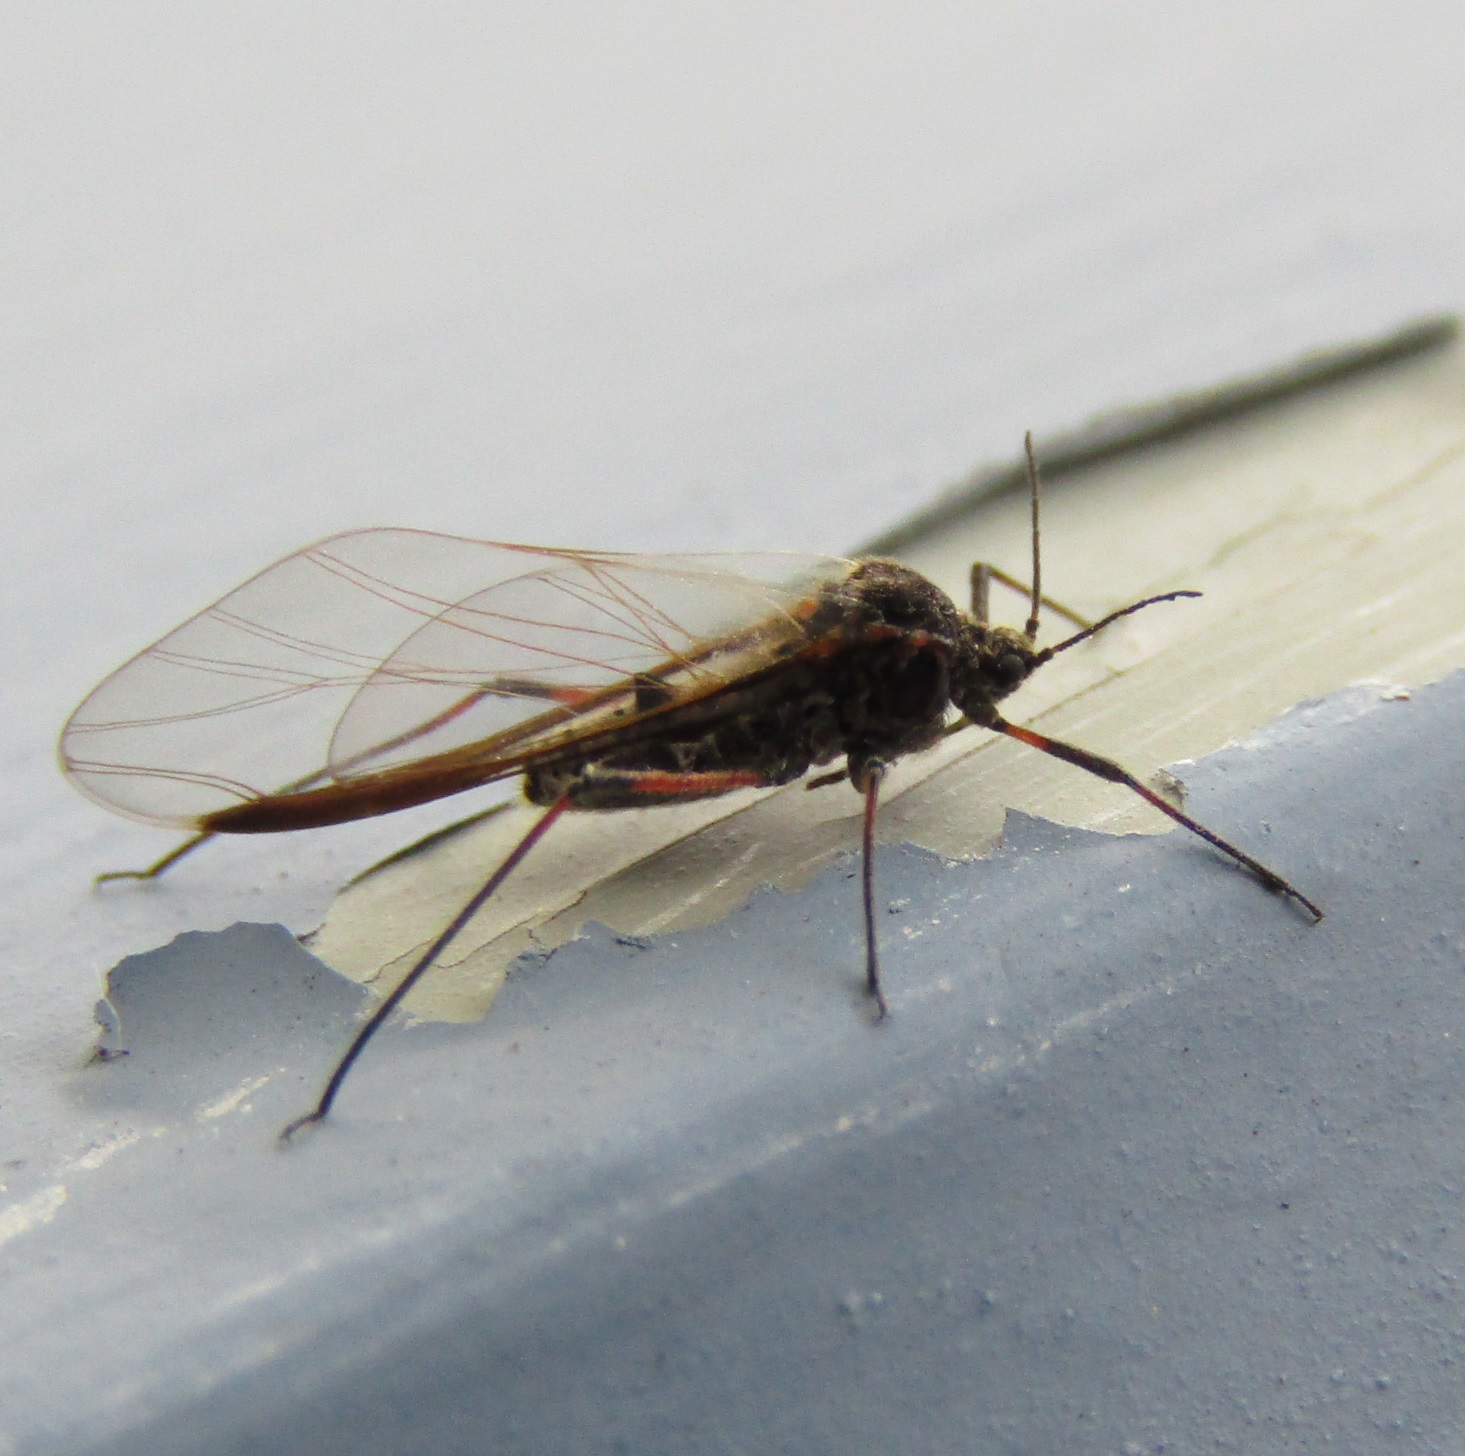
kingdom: Animalia
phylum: Arthropoda
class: Insecta
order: Hemiptera
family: Aphididae
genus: Tuberolachnus
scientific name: Tuberolachnus salignus
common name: Giant willow aphid
